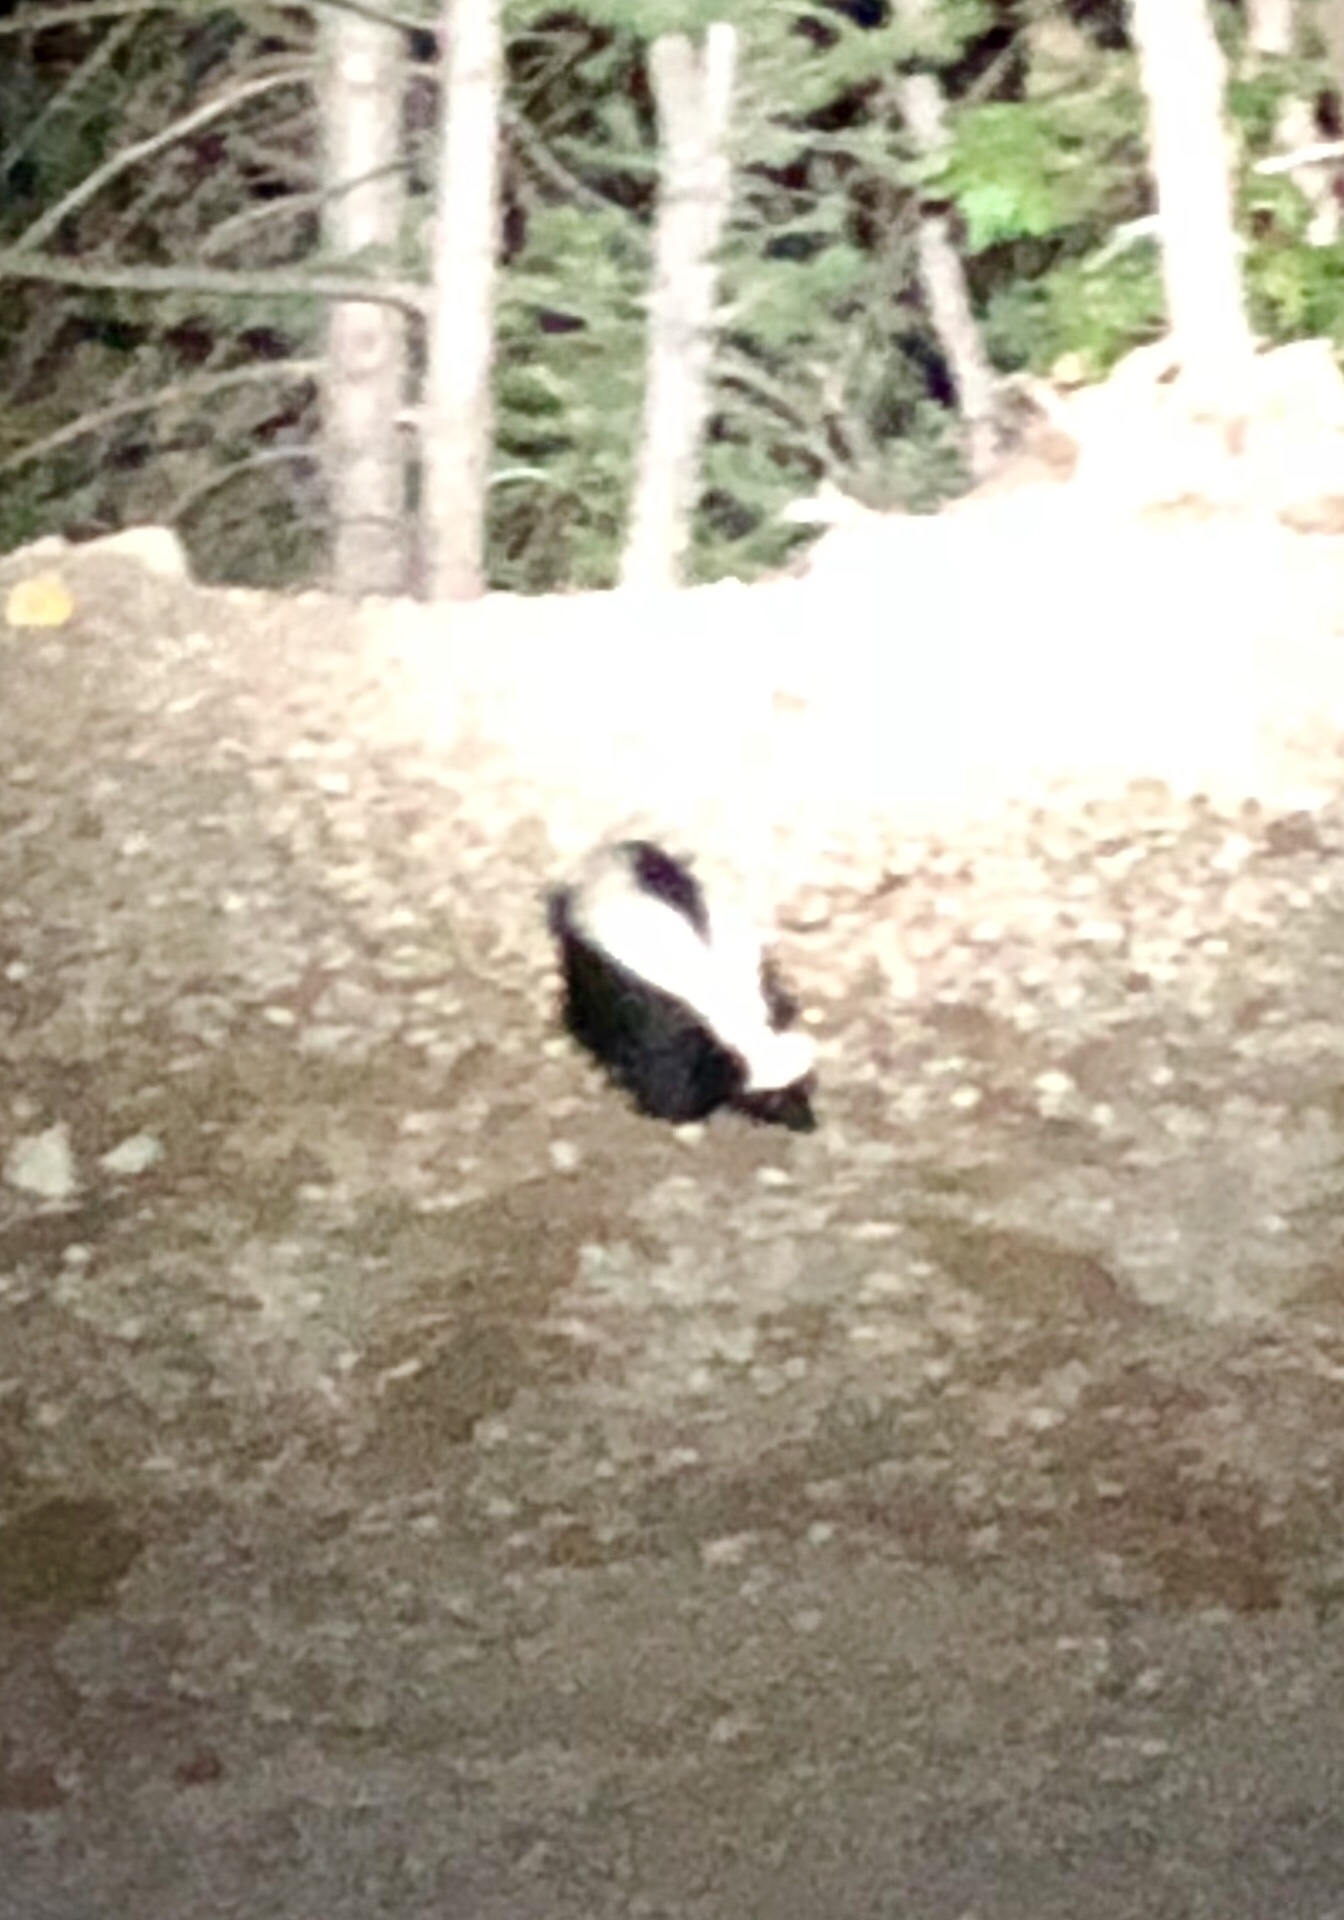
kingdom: Animalia
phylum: Chordata
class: Mammalia
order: Carnivora
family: Mephitidae
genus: Mephitis
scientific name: Mephitis mephitis
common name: Striped skunk
